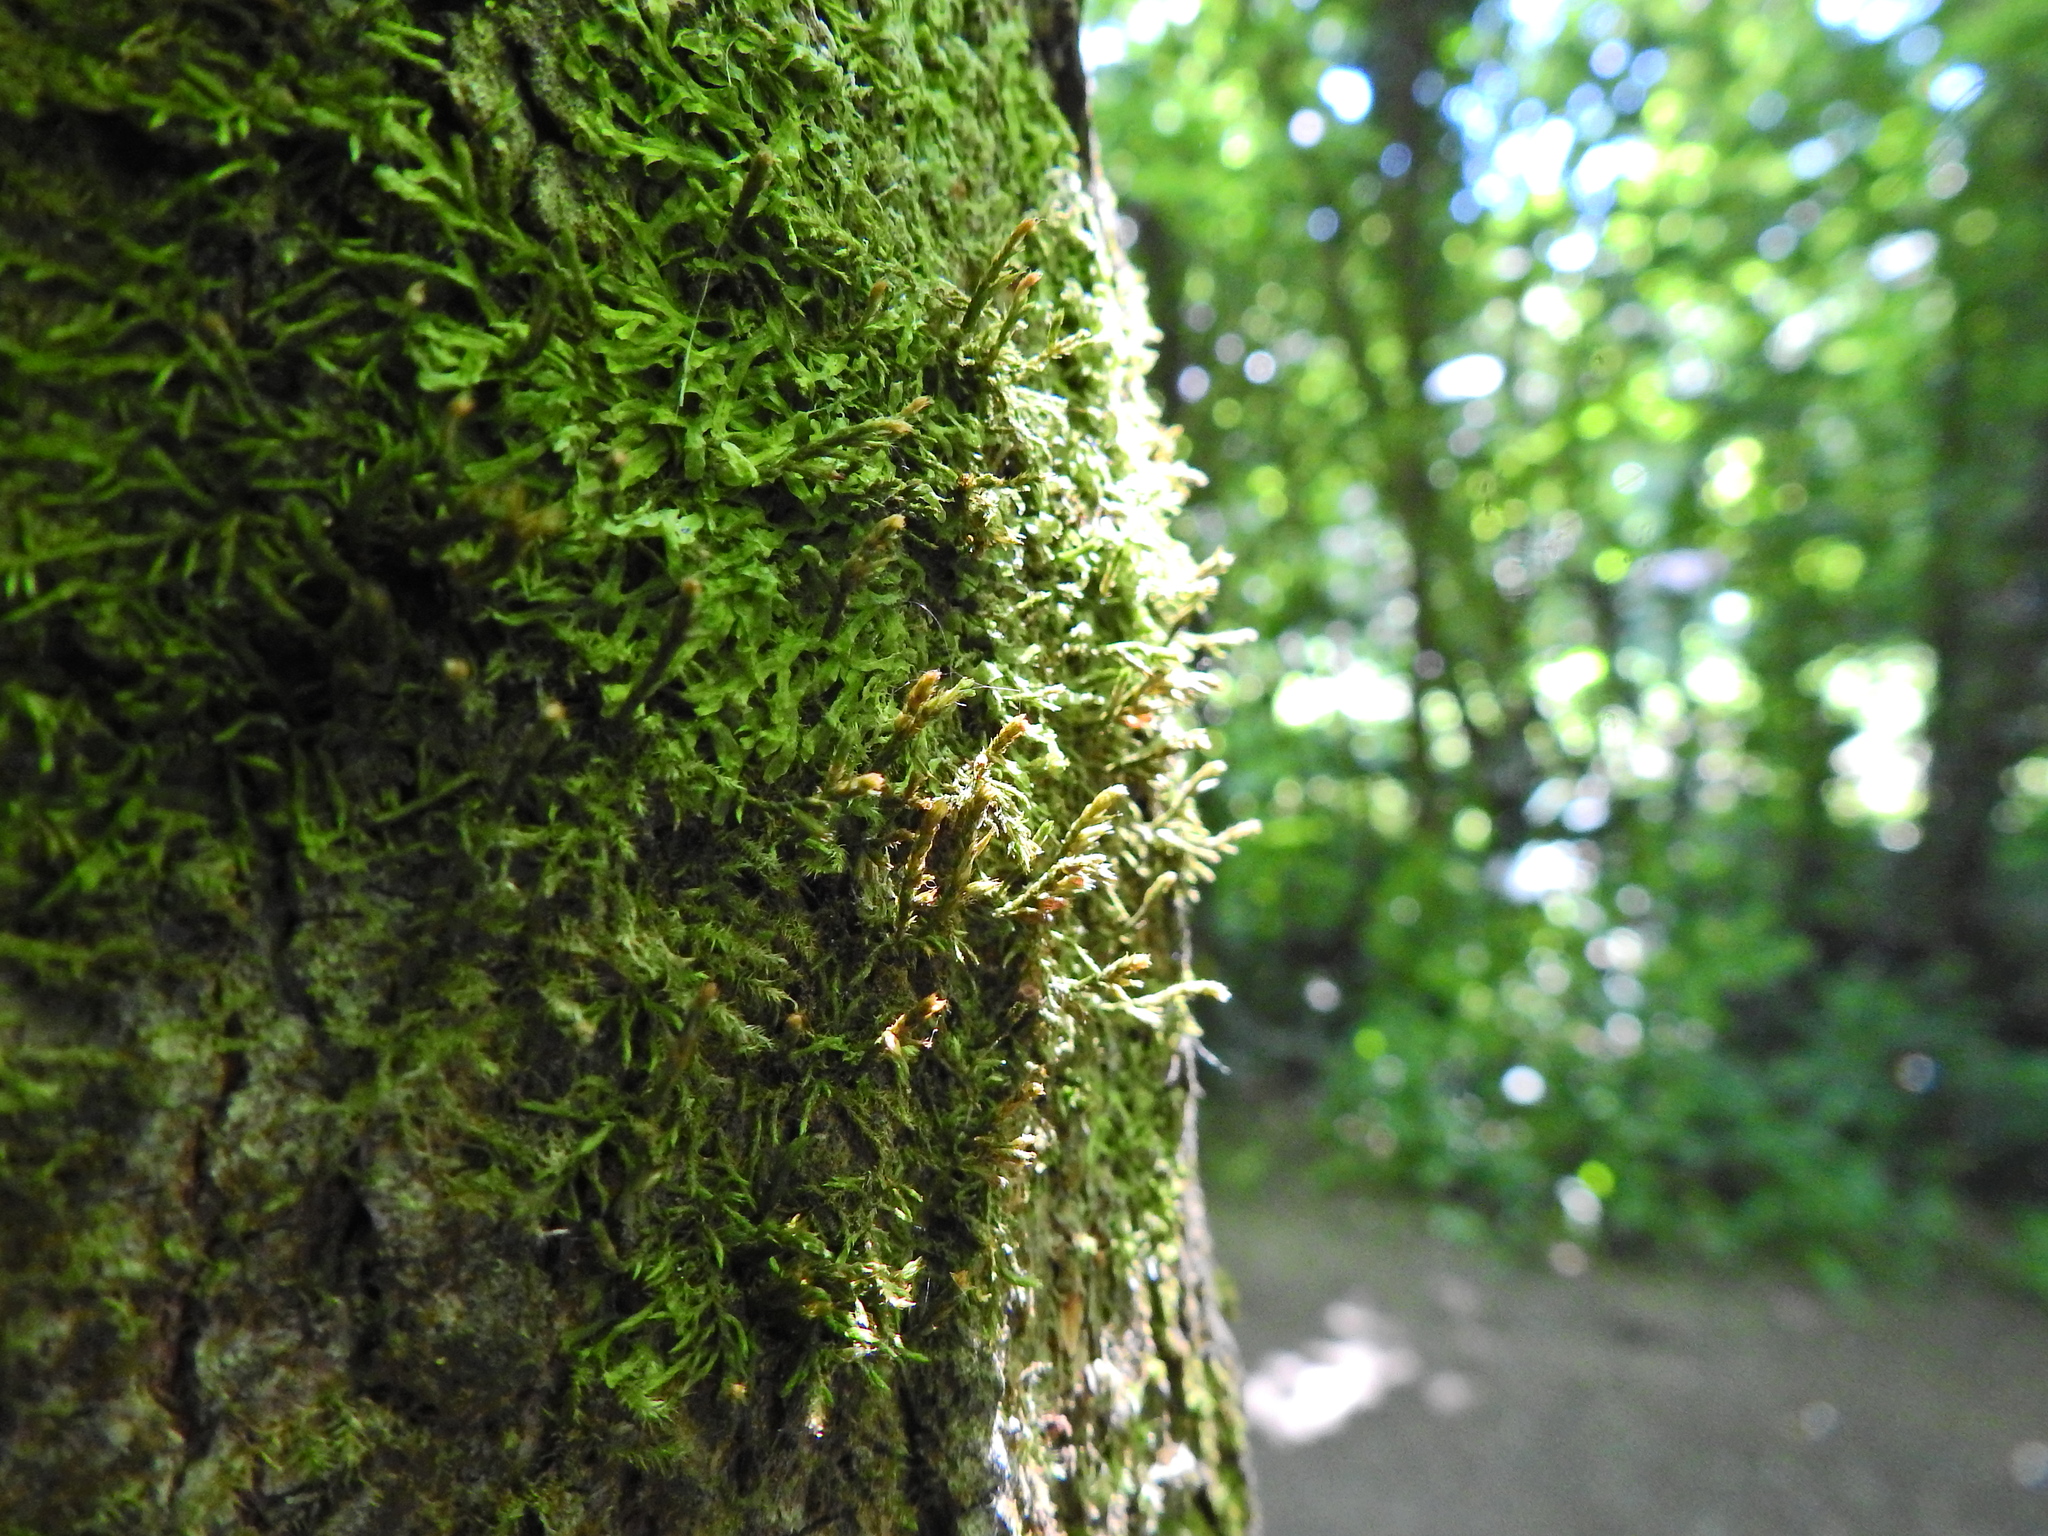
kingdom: Plantae
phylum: Bryophyta
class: Bryopsida
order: Hypnales
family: Cryphaeaceae
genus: Cryphaea
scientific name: Cryphaea heteromalla
